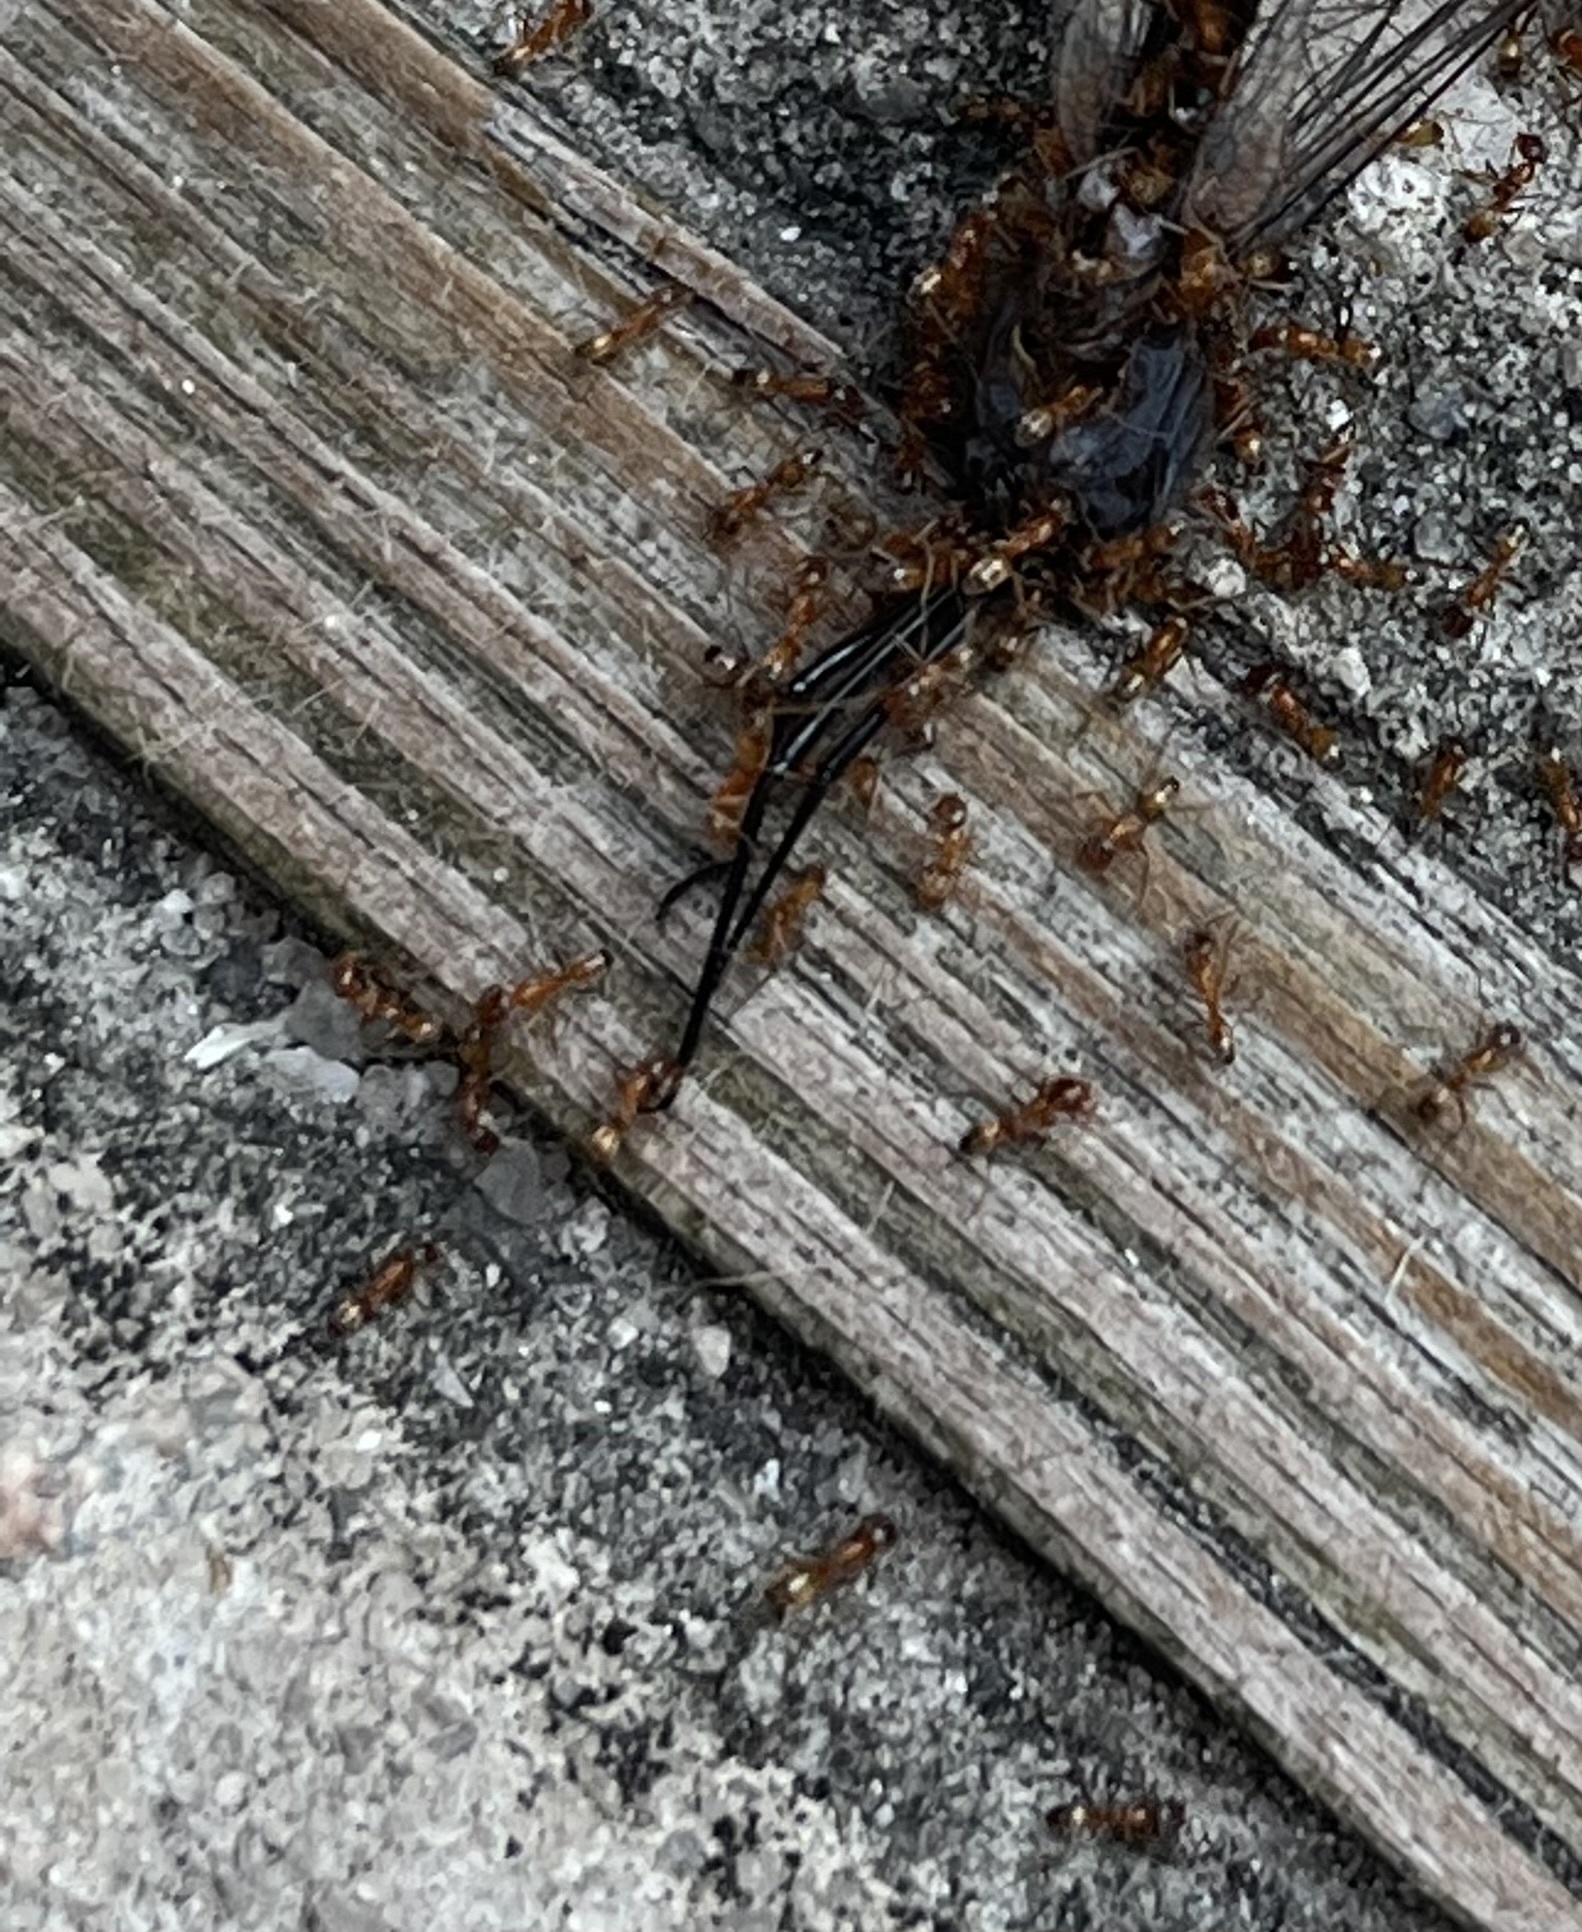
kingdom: Animalia
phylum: Arthropoda
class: Insecta
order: Hymenoptera
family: Formicidae
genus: Dorymyrmex
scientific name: Dorymyrmex bureni
